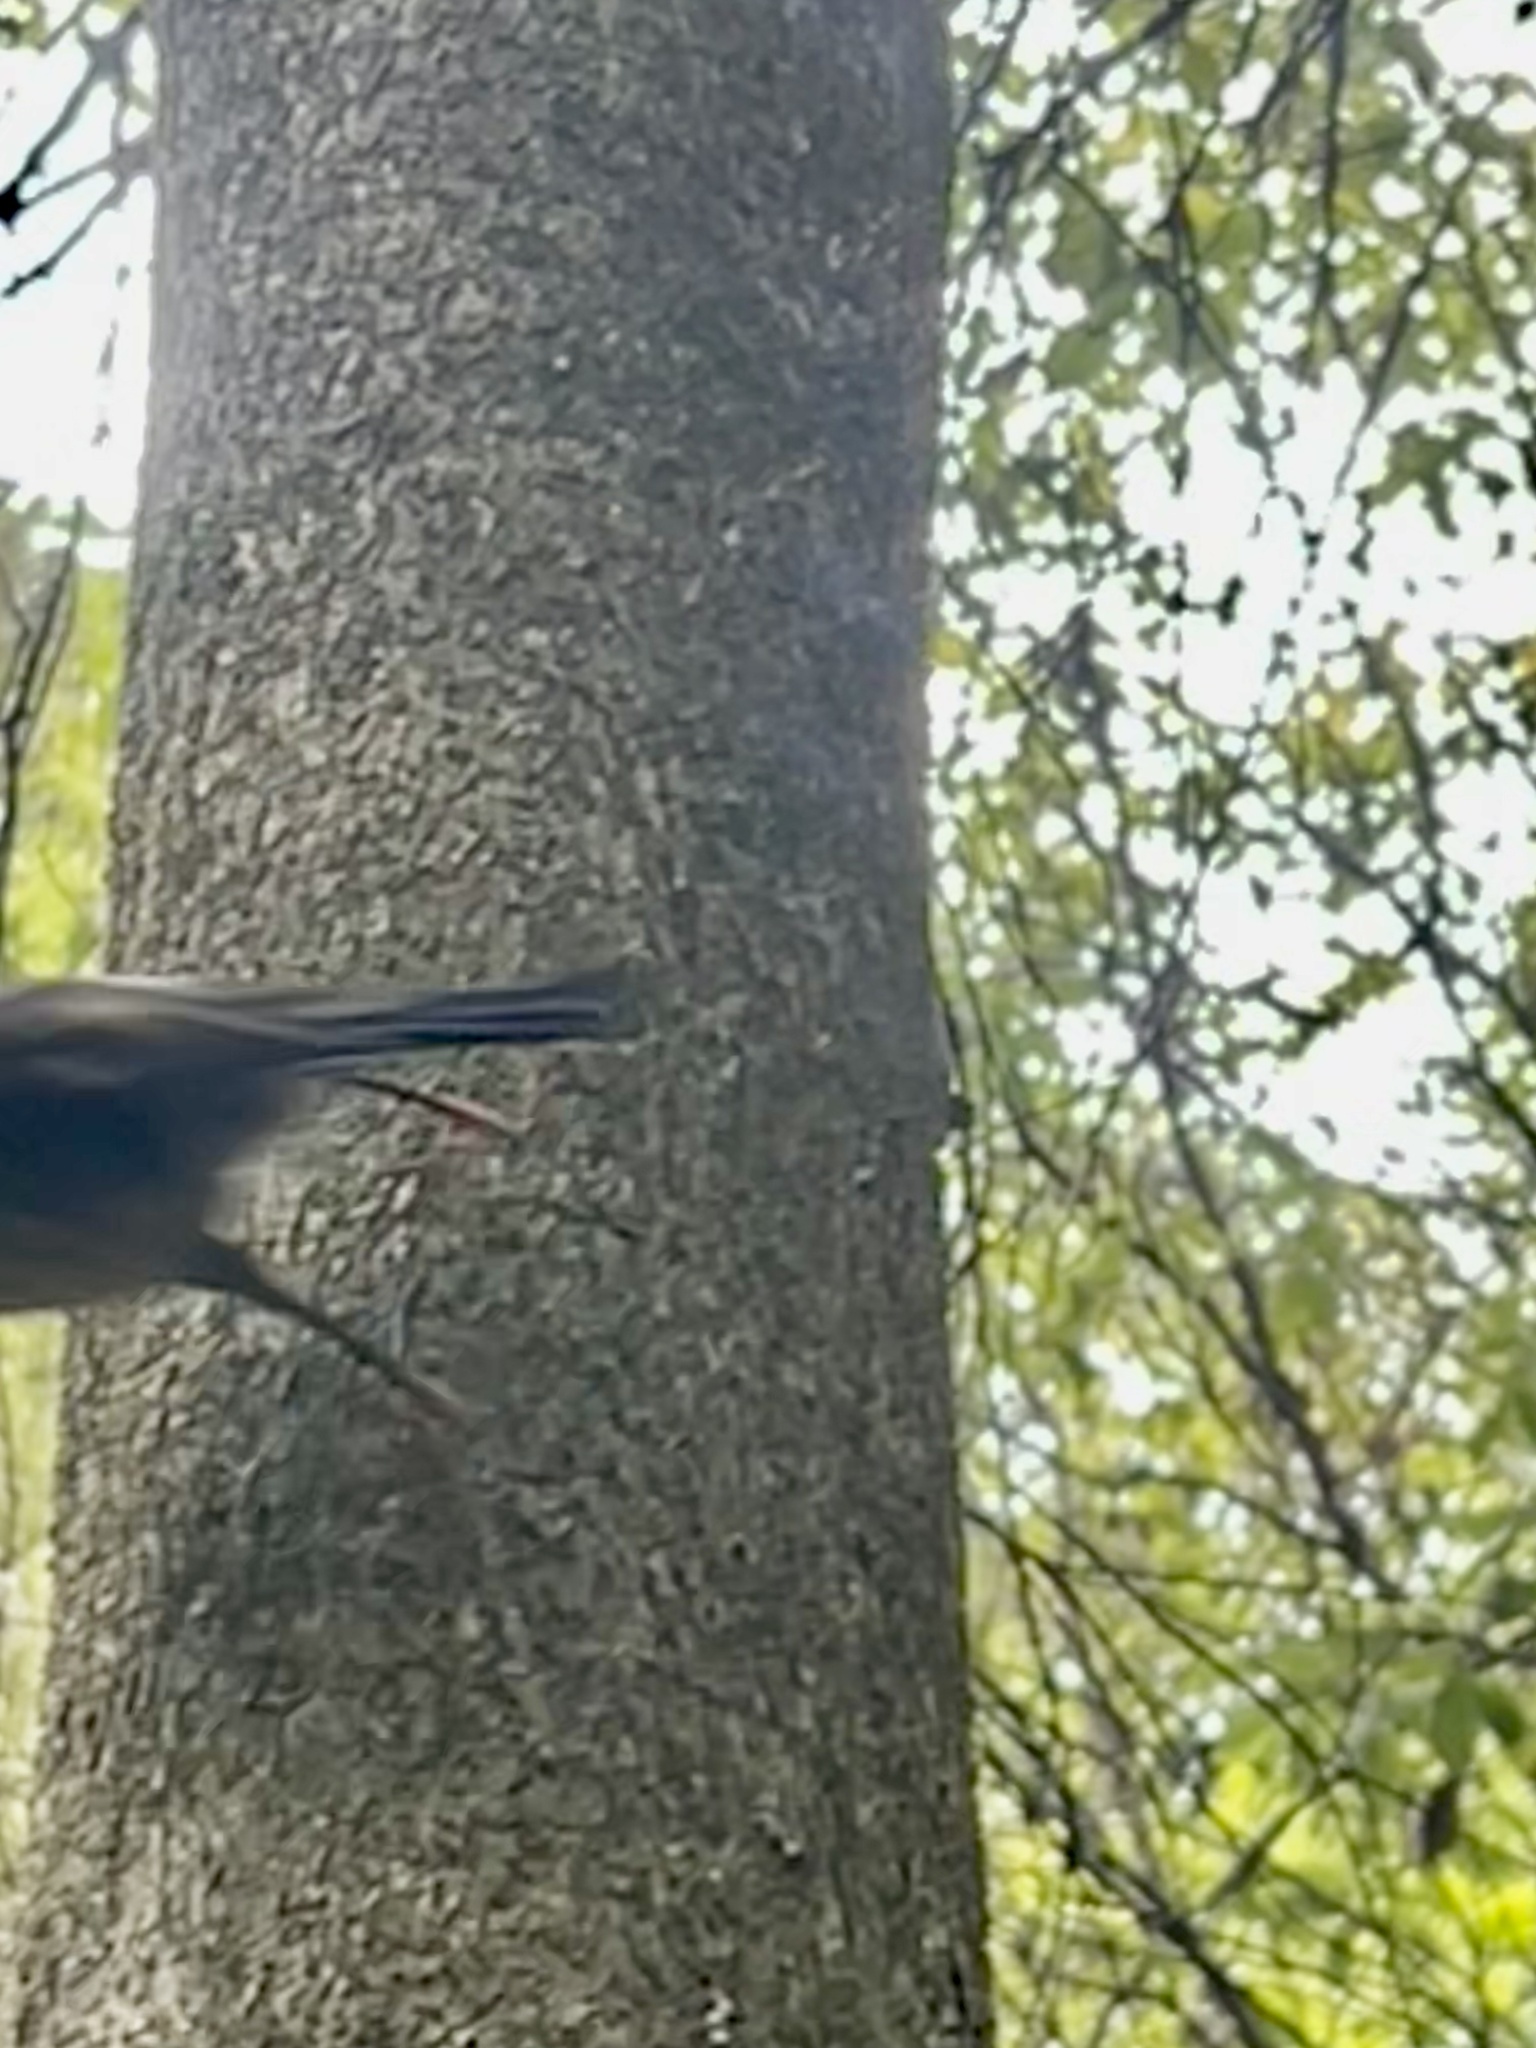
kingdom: Animalia
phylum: Chordata
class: Aves
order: Passeriformes
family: Petroicidae
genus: Petroica
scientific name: Petroica macrocephala
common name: Tomtit
